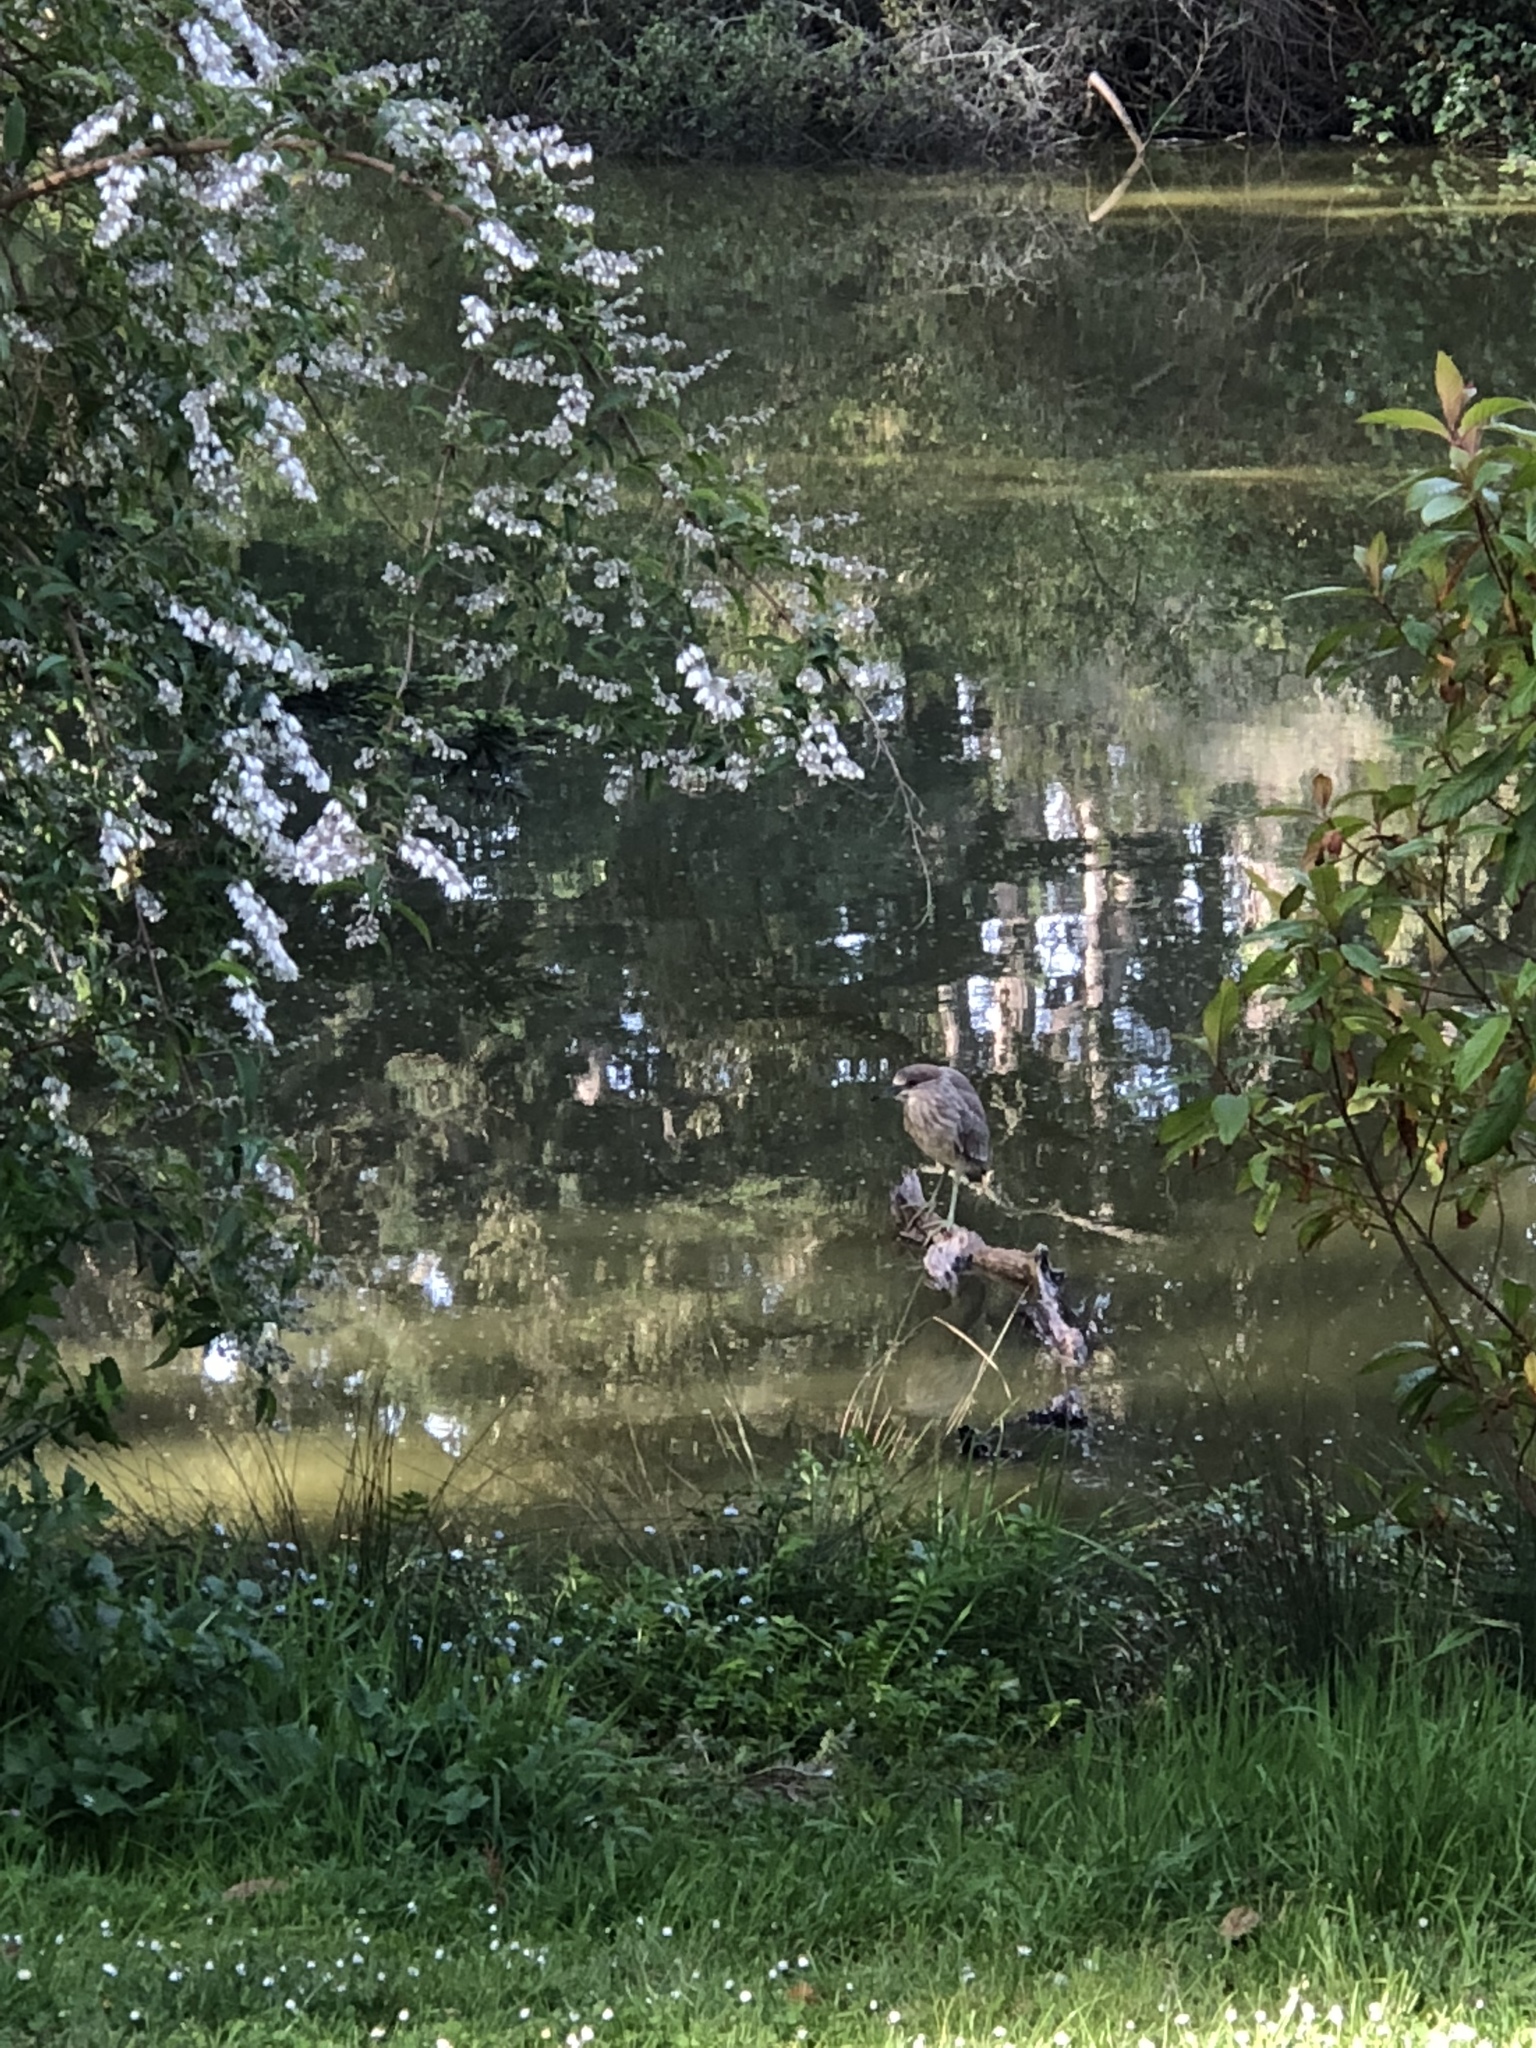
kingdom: Animalia
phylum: Chordata
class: Aves
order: Pelecaniformes
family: Ardeidae
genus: Nycticorax
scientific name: Nycticorax nycticorax
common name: Black-crowned night heron
